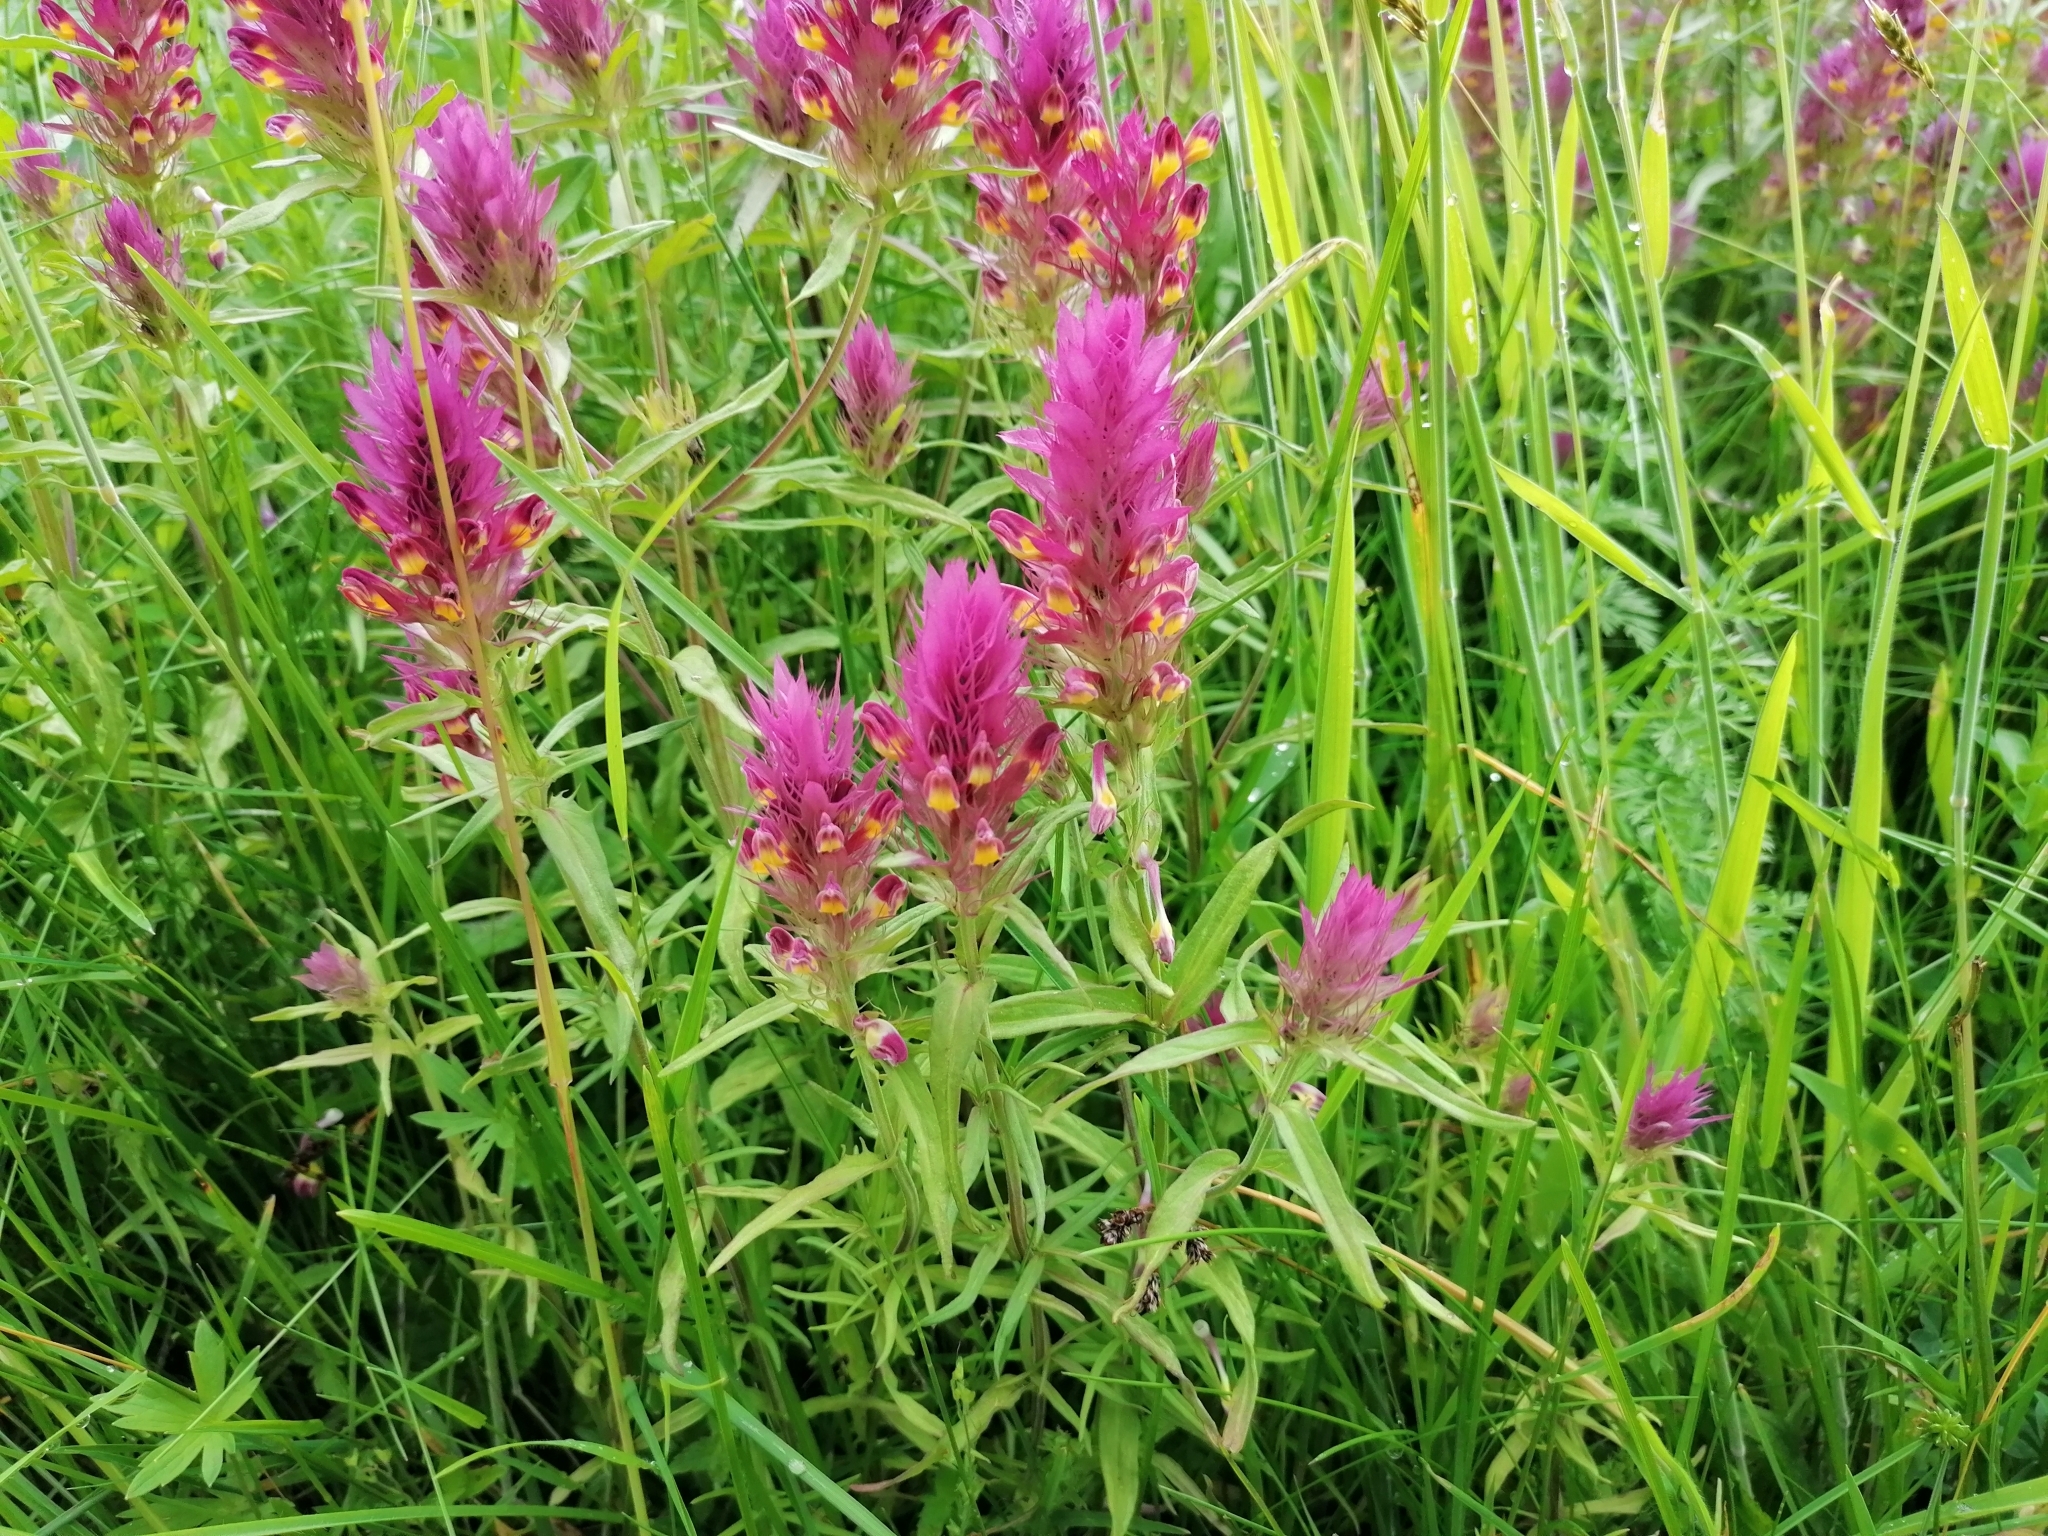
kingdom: Plantae
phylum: Tracheophyta
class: Magnoliopsida
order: Lamiales
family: Orobanchaceae
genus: Melampyrum
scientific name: Melampyrum arvense
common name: Field cow-wheat
